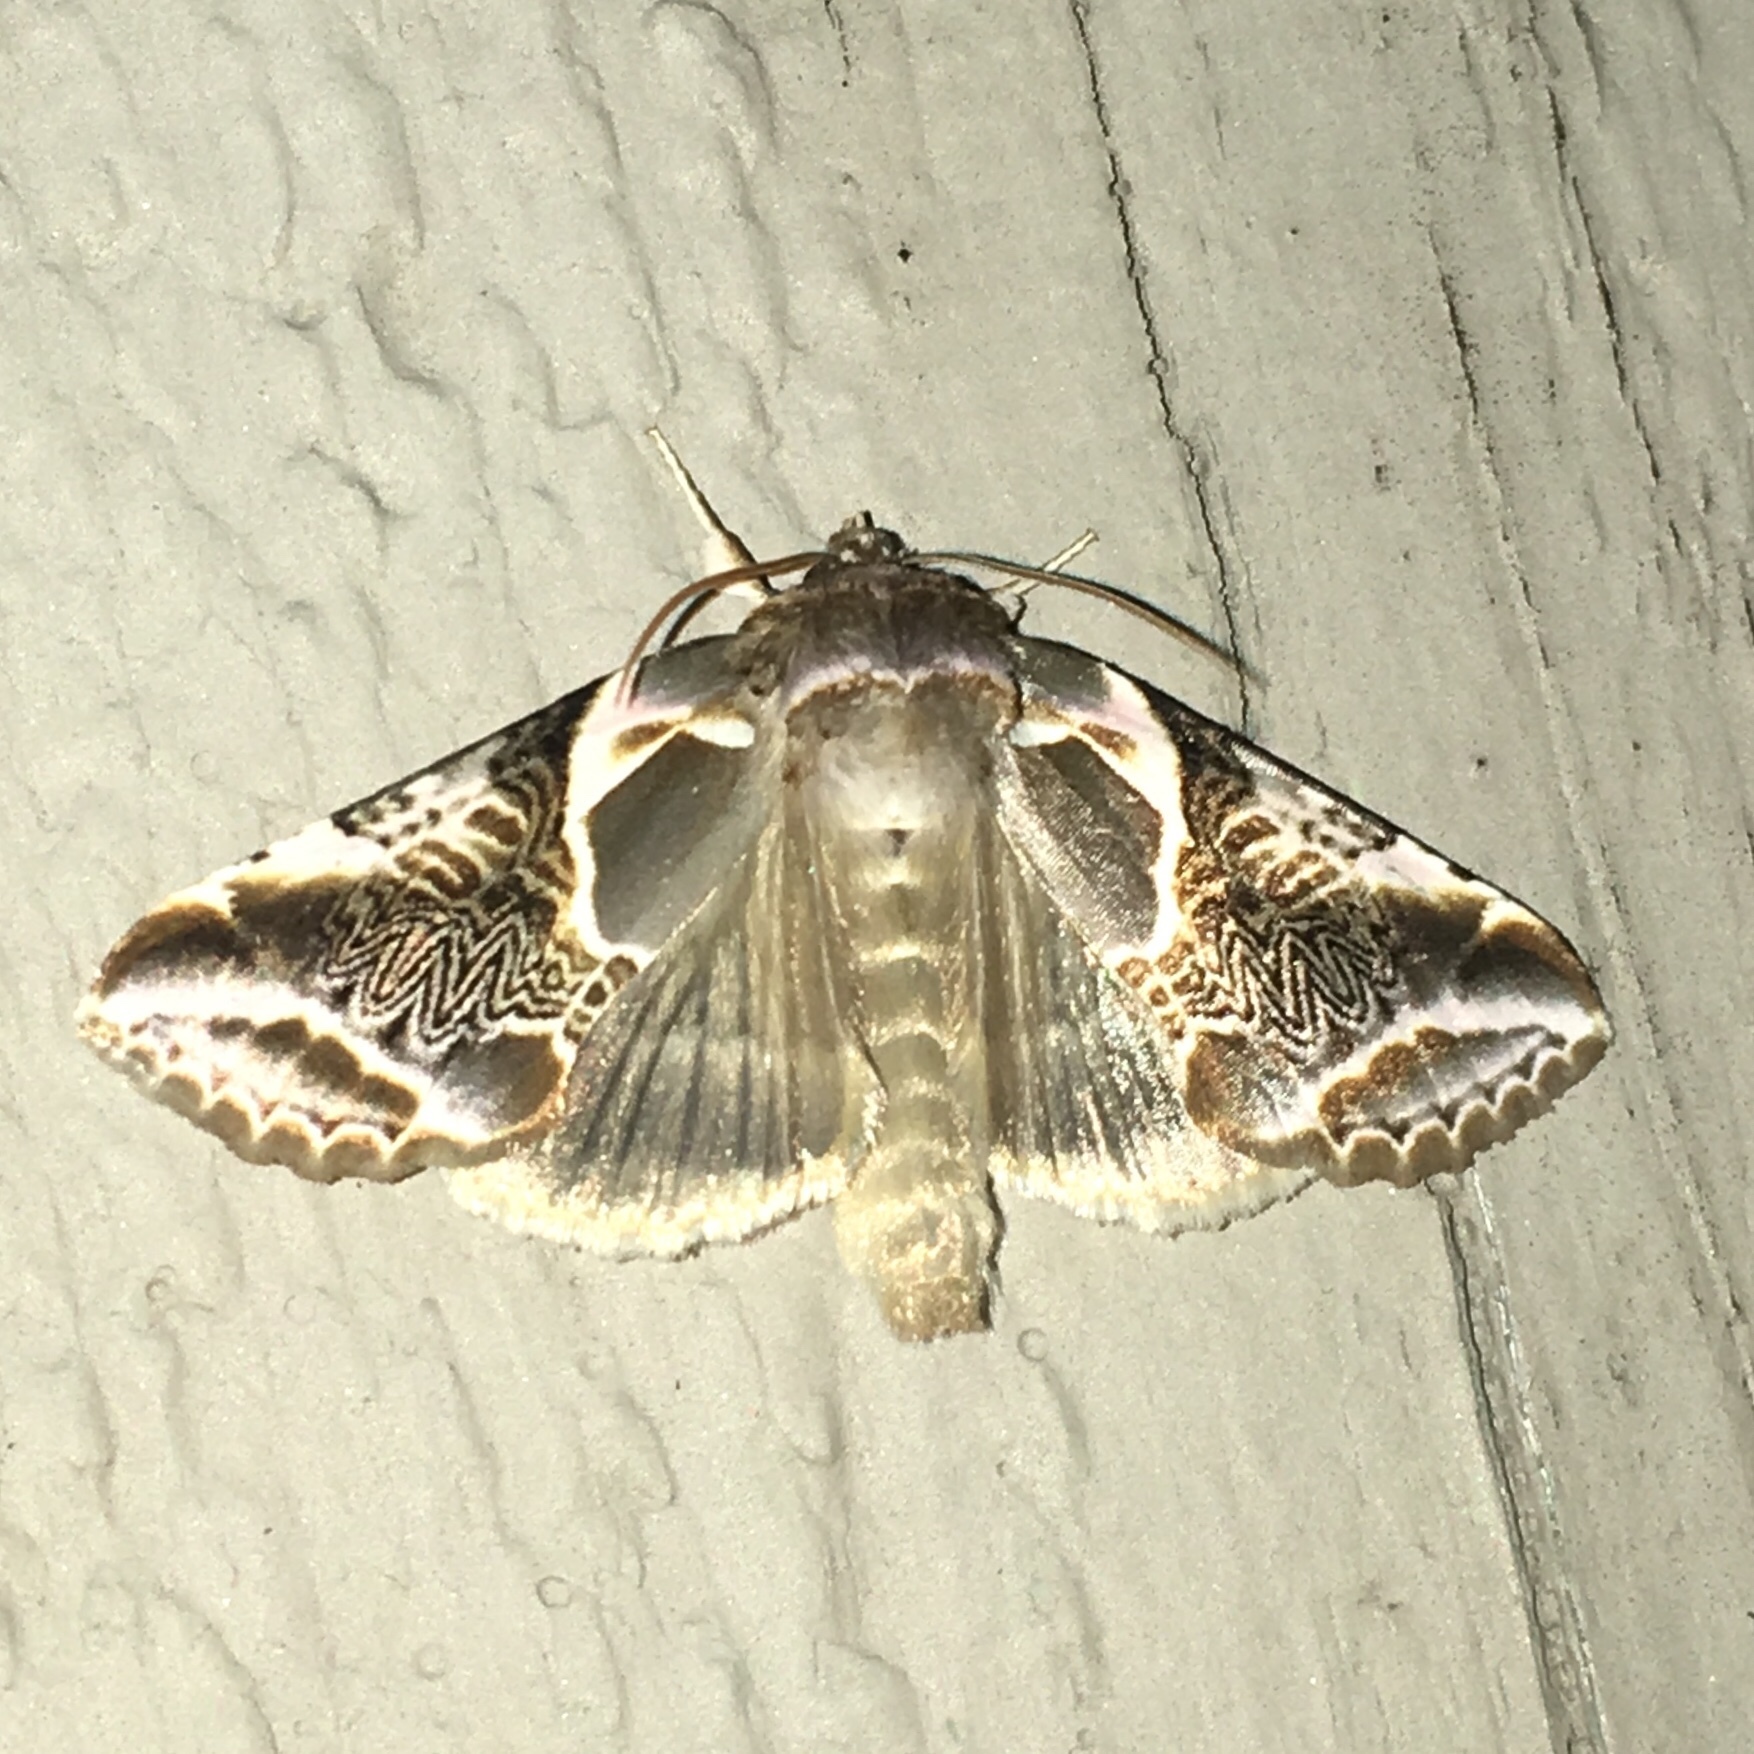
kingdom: Animalia
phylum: Arthropoda
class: Insecta
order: Lepidoptera
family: Drepanidae
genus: Habrosyne
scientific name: Habrosyne scripta
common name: Lettered habrosyne moth
